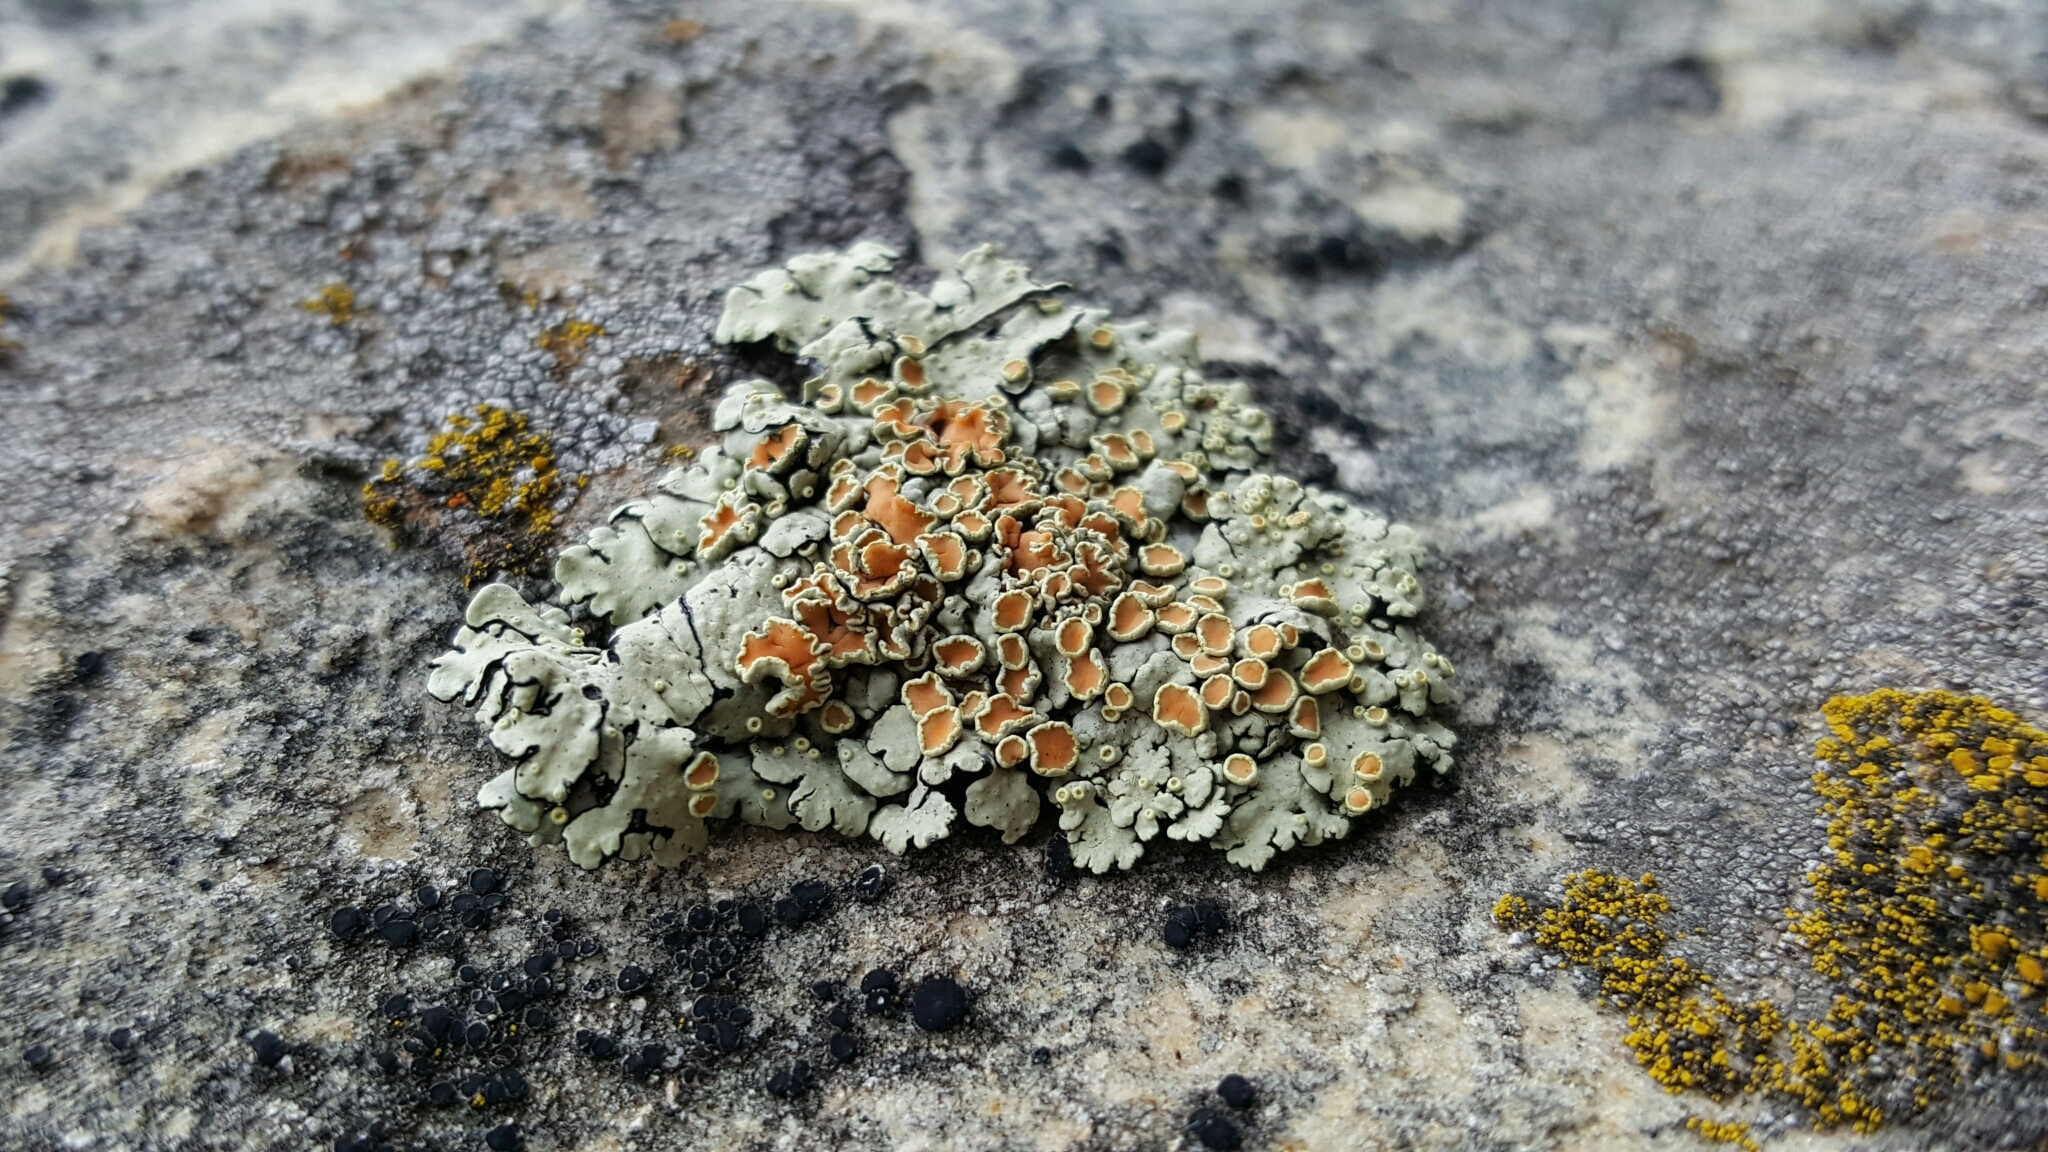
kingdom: Fungi
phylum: Ascomycota
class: Lecanoromycetes
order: Lecanorales
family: Lecanoraceae
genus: Omphalodina
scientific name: Omphalodina chrysoleuca
